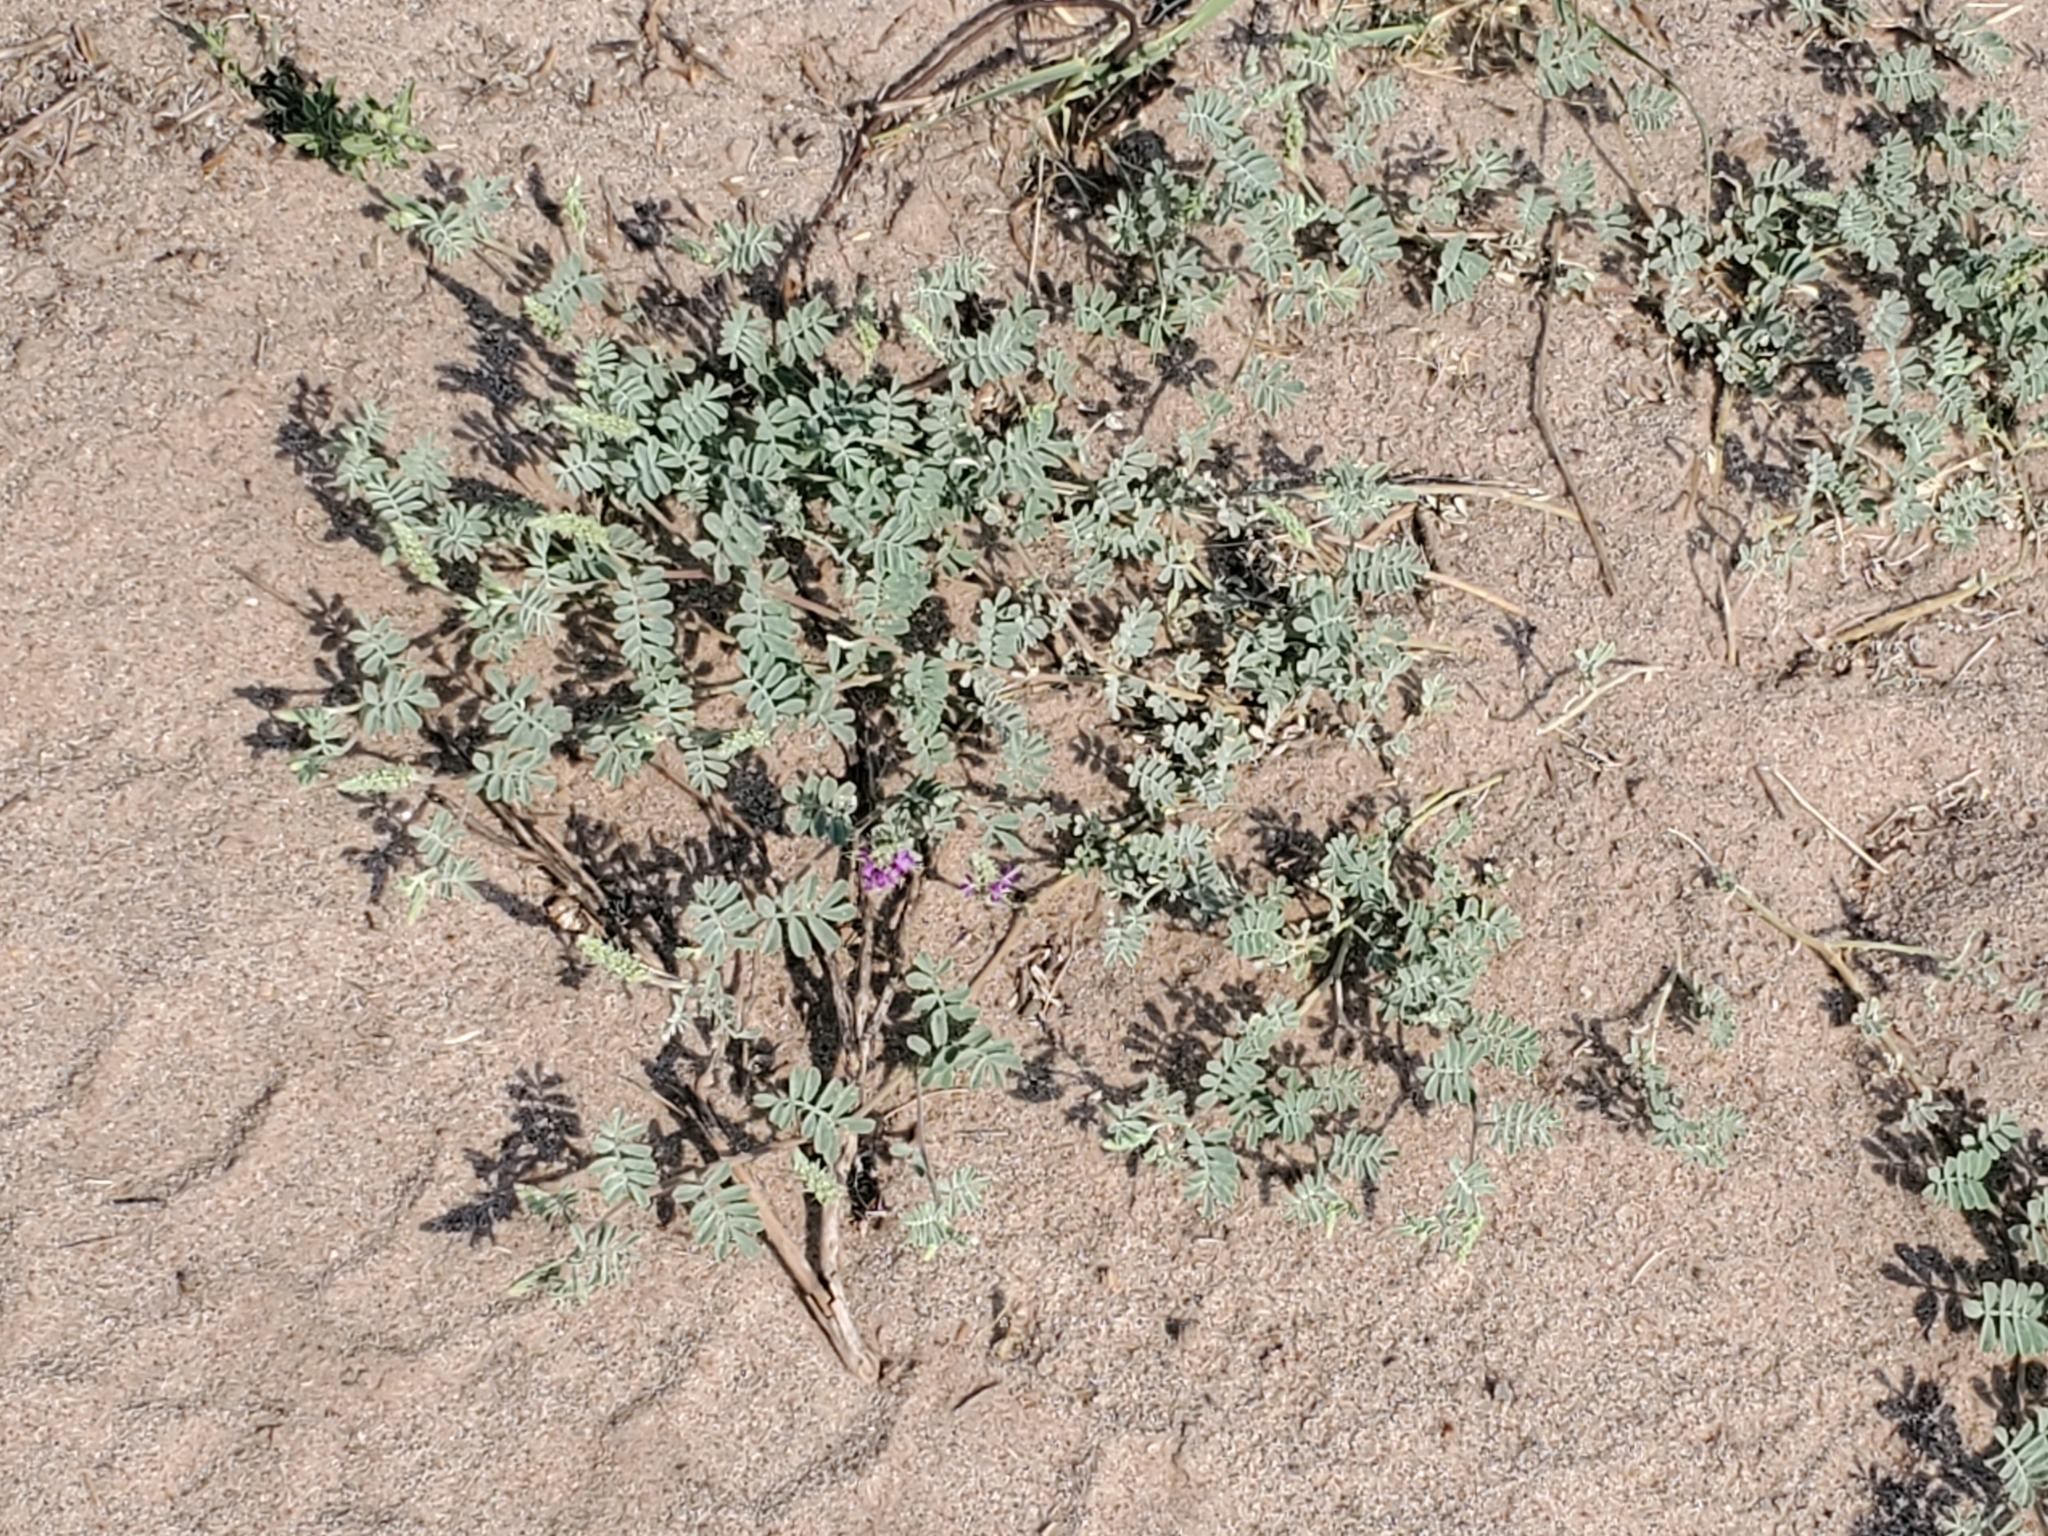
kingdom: Plantae
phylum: Tracheophyta
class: Magnoliopsida
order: Fabales
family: Fabaceae
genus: Dalea
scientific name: Dalea lanata
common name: Woolly dalea
